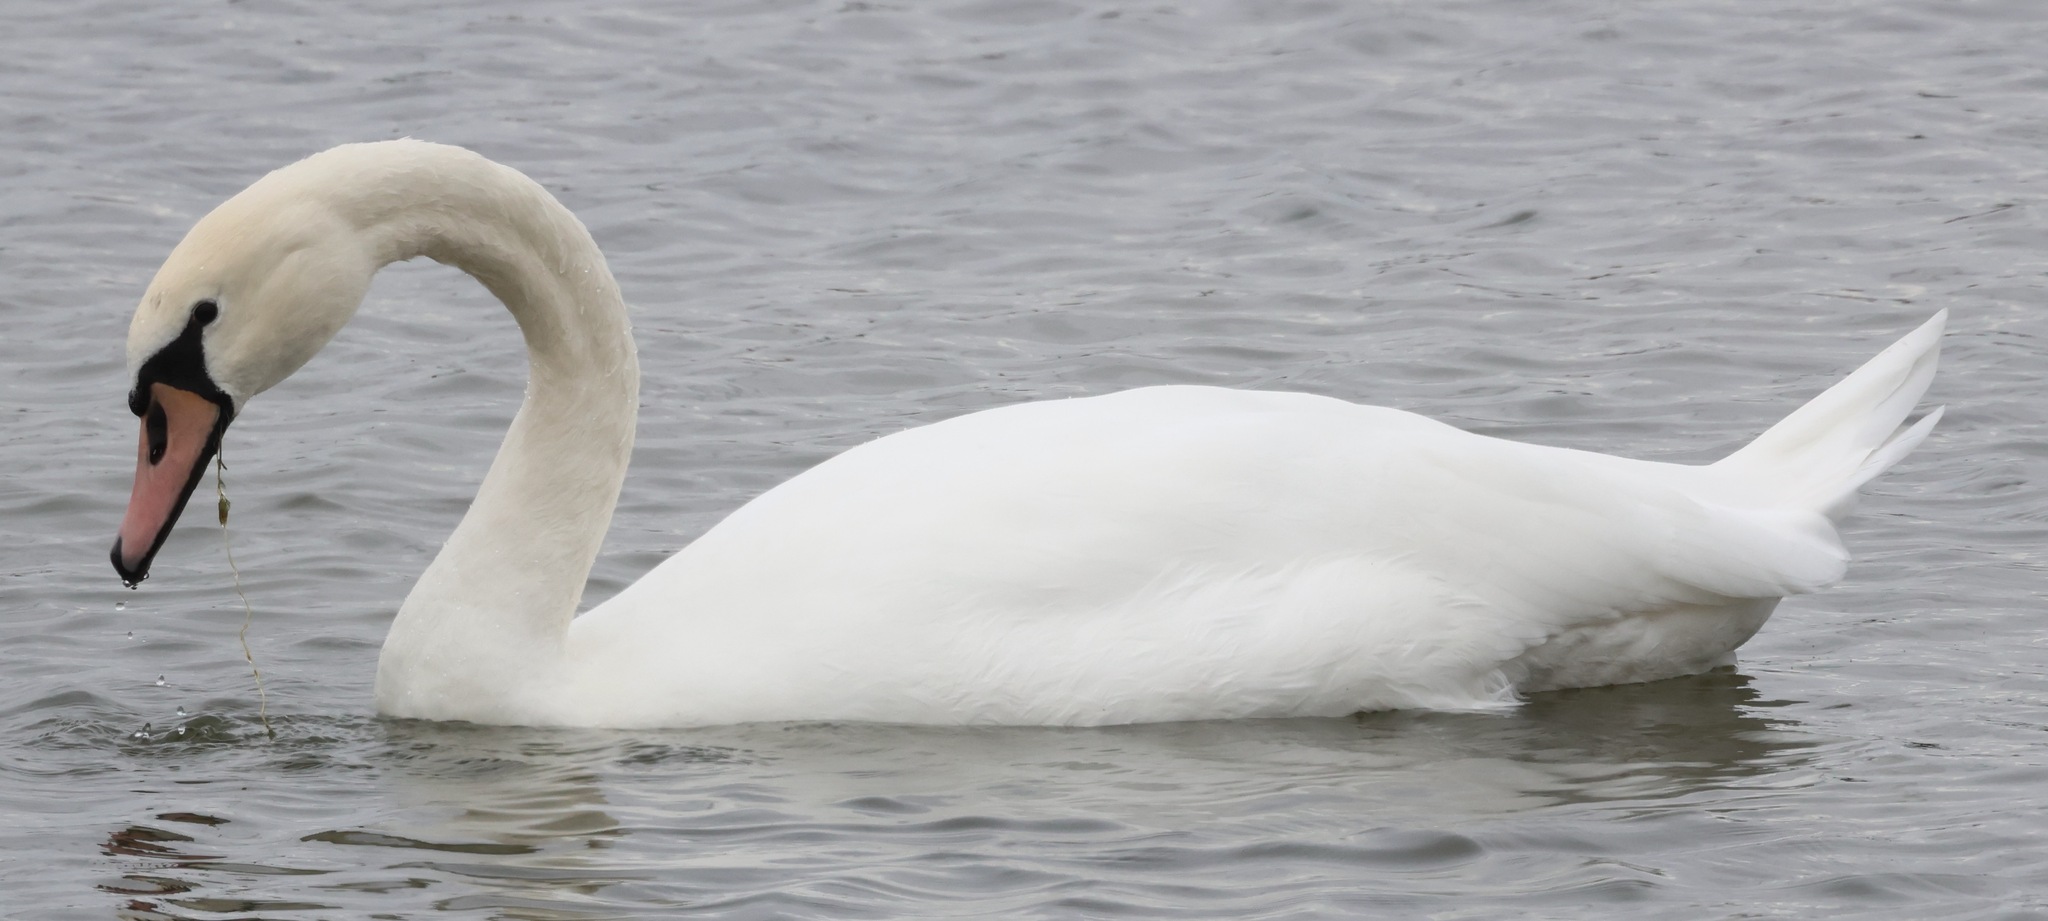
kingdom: Animalia
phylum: Chordata
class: Aves
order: Anseriformes
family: Anatidae
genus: Cygnus
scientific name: Cygnus olor
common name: Mute swan
